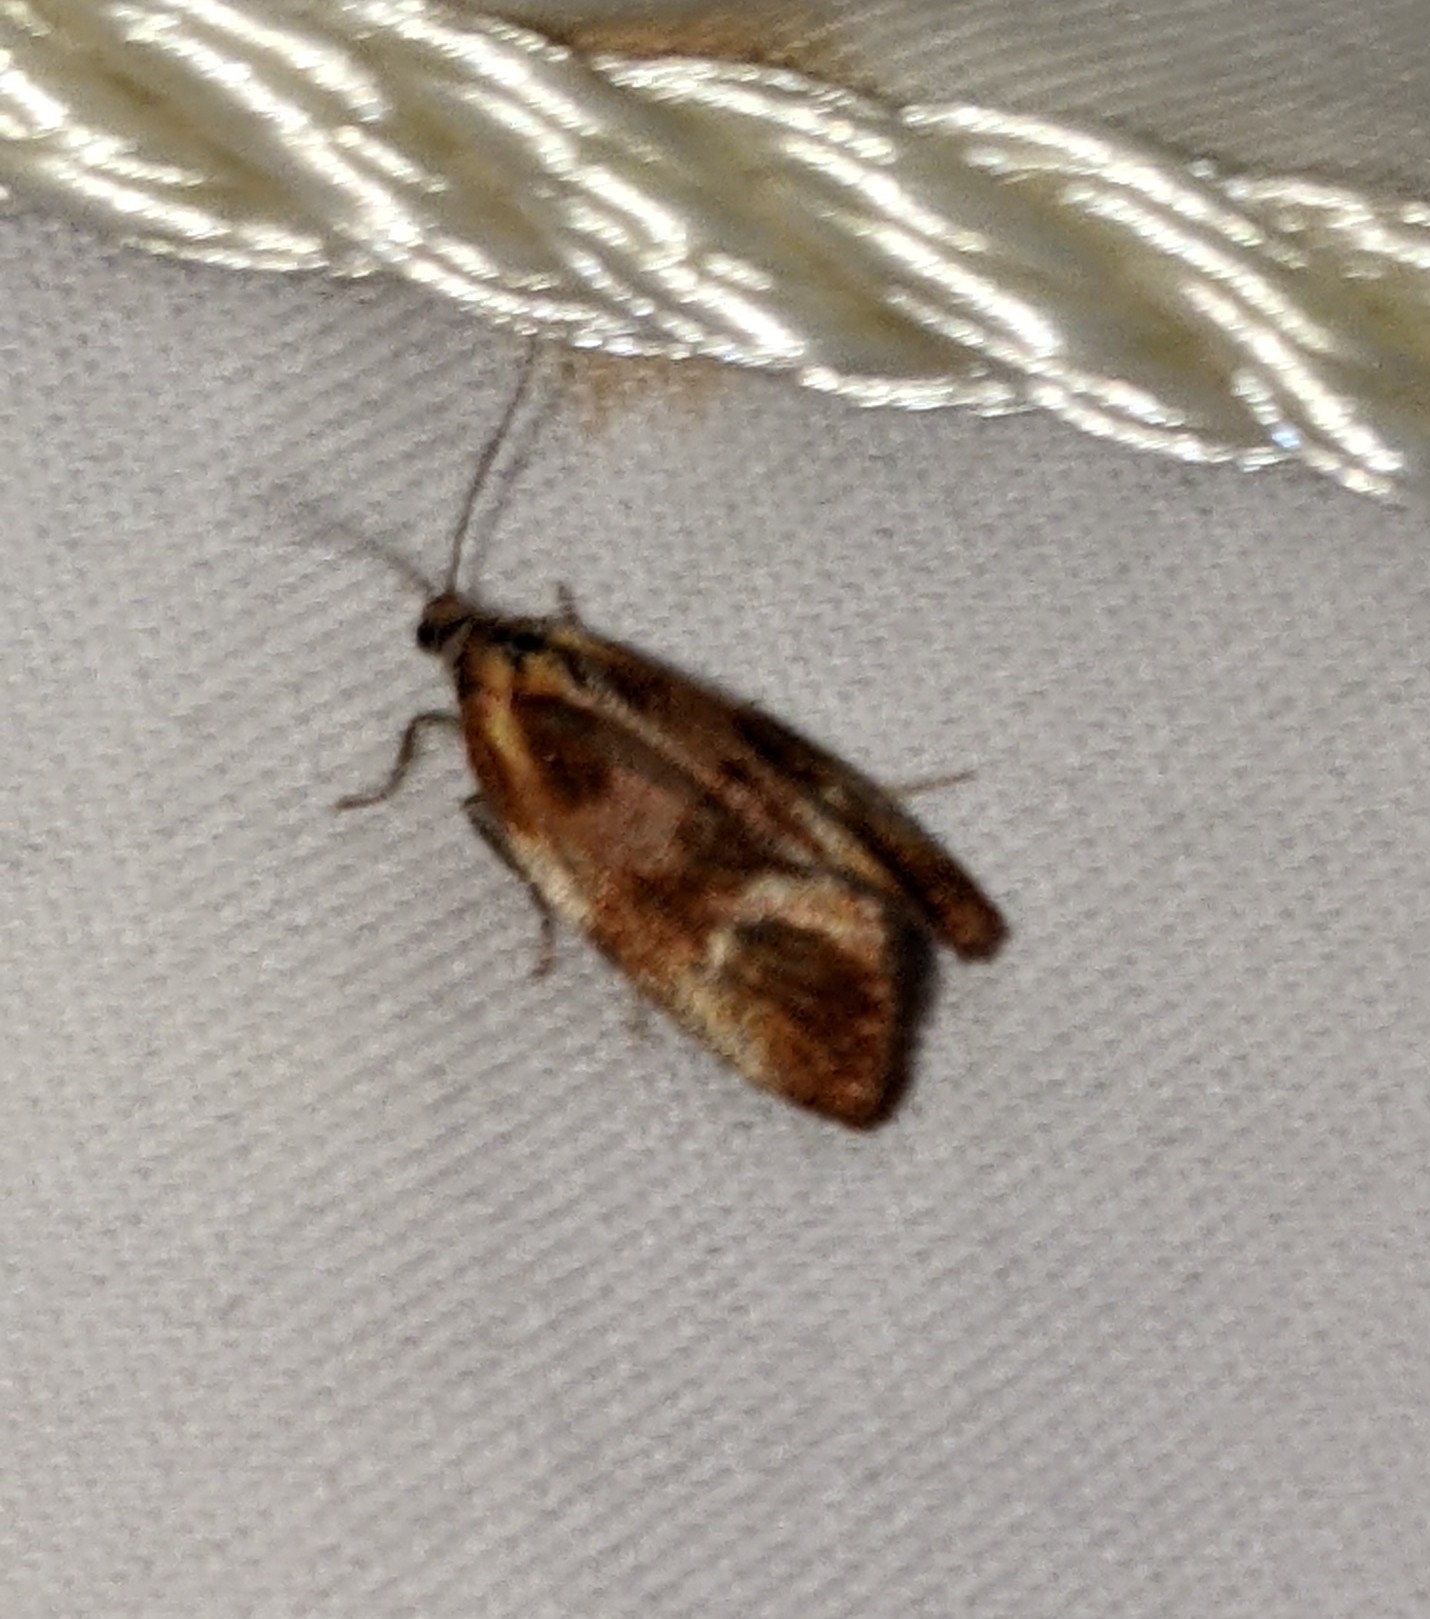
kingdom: Animalia
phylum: Arthropoda
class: Insecta
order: Lepidoptera
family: Tortricidae
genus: Eulia
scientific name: Eulia ministrana
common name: Brassy twist
